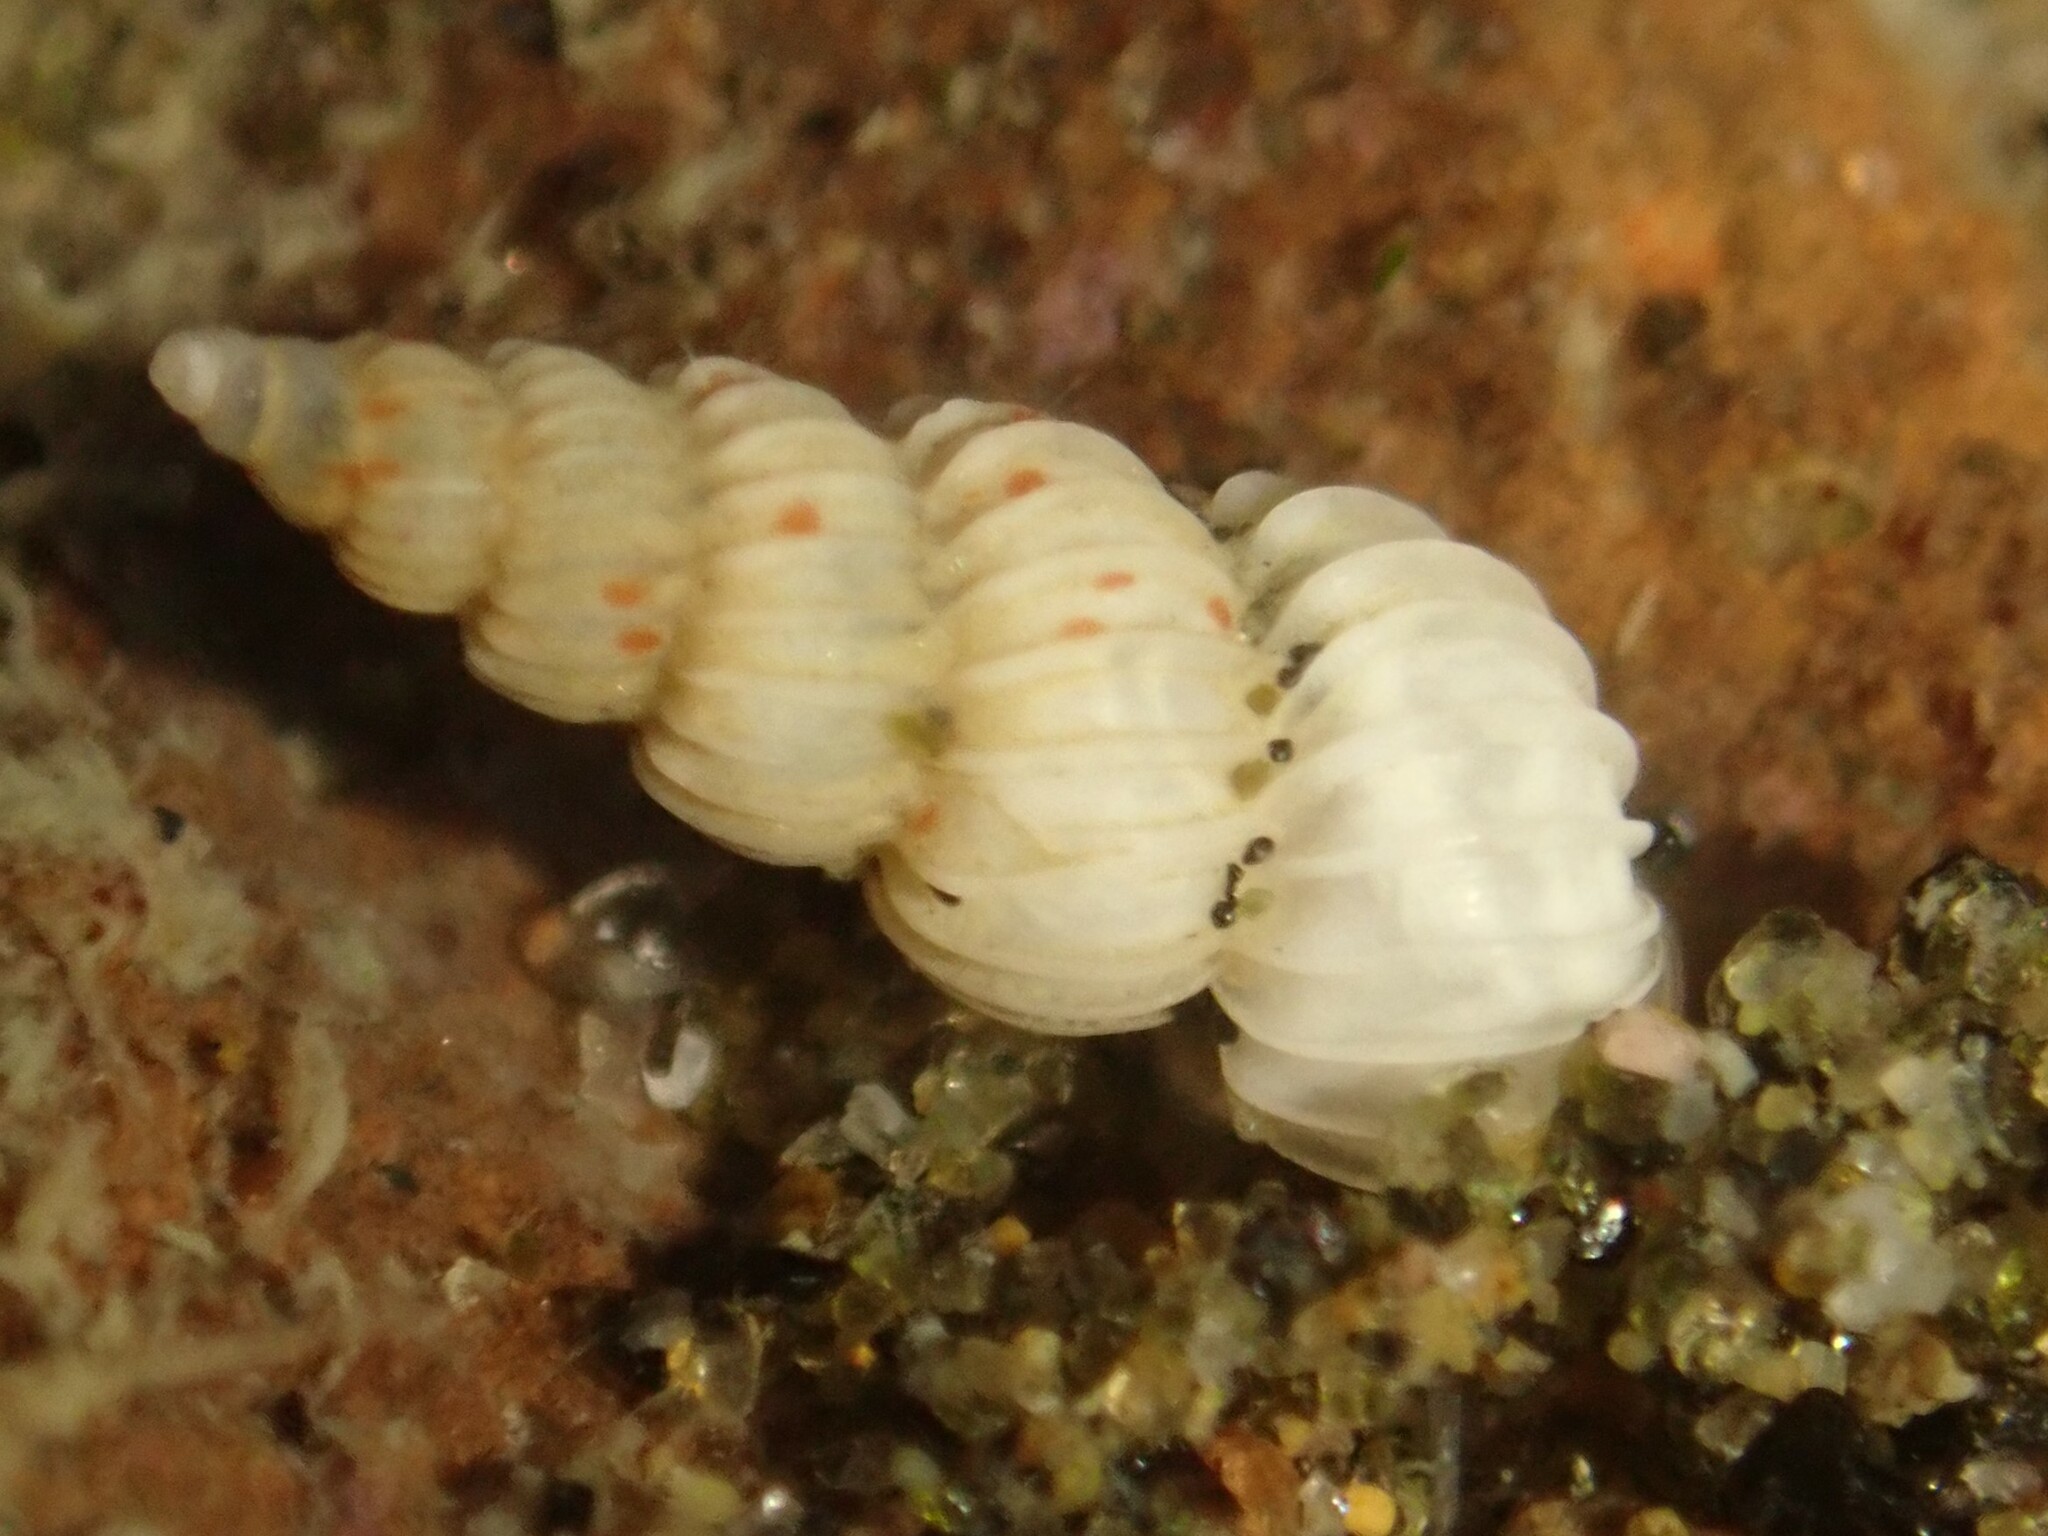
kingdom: Animalia
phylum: Mollusca
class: Gastropoda
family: Epitoniidae
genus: Epitonium
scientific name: Epitonium jukesianum
